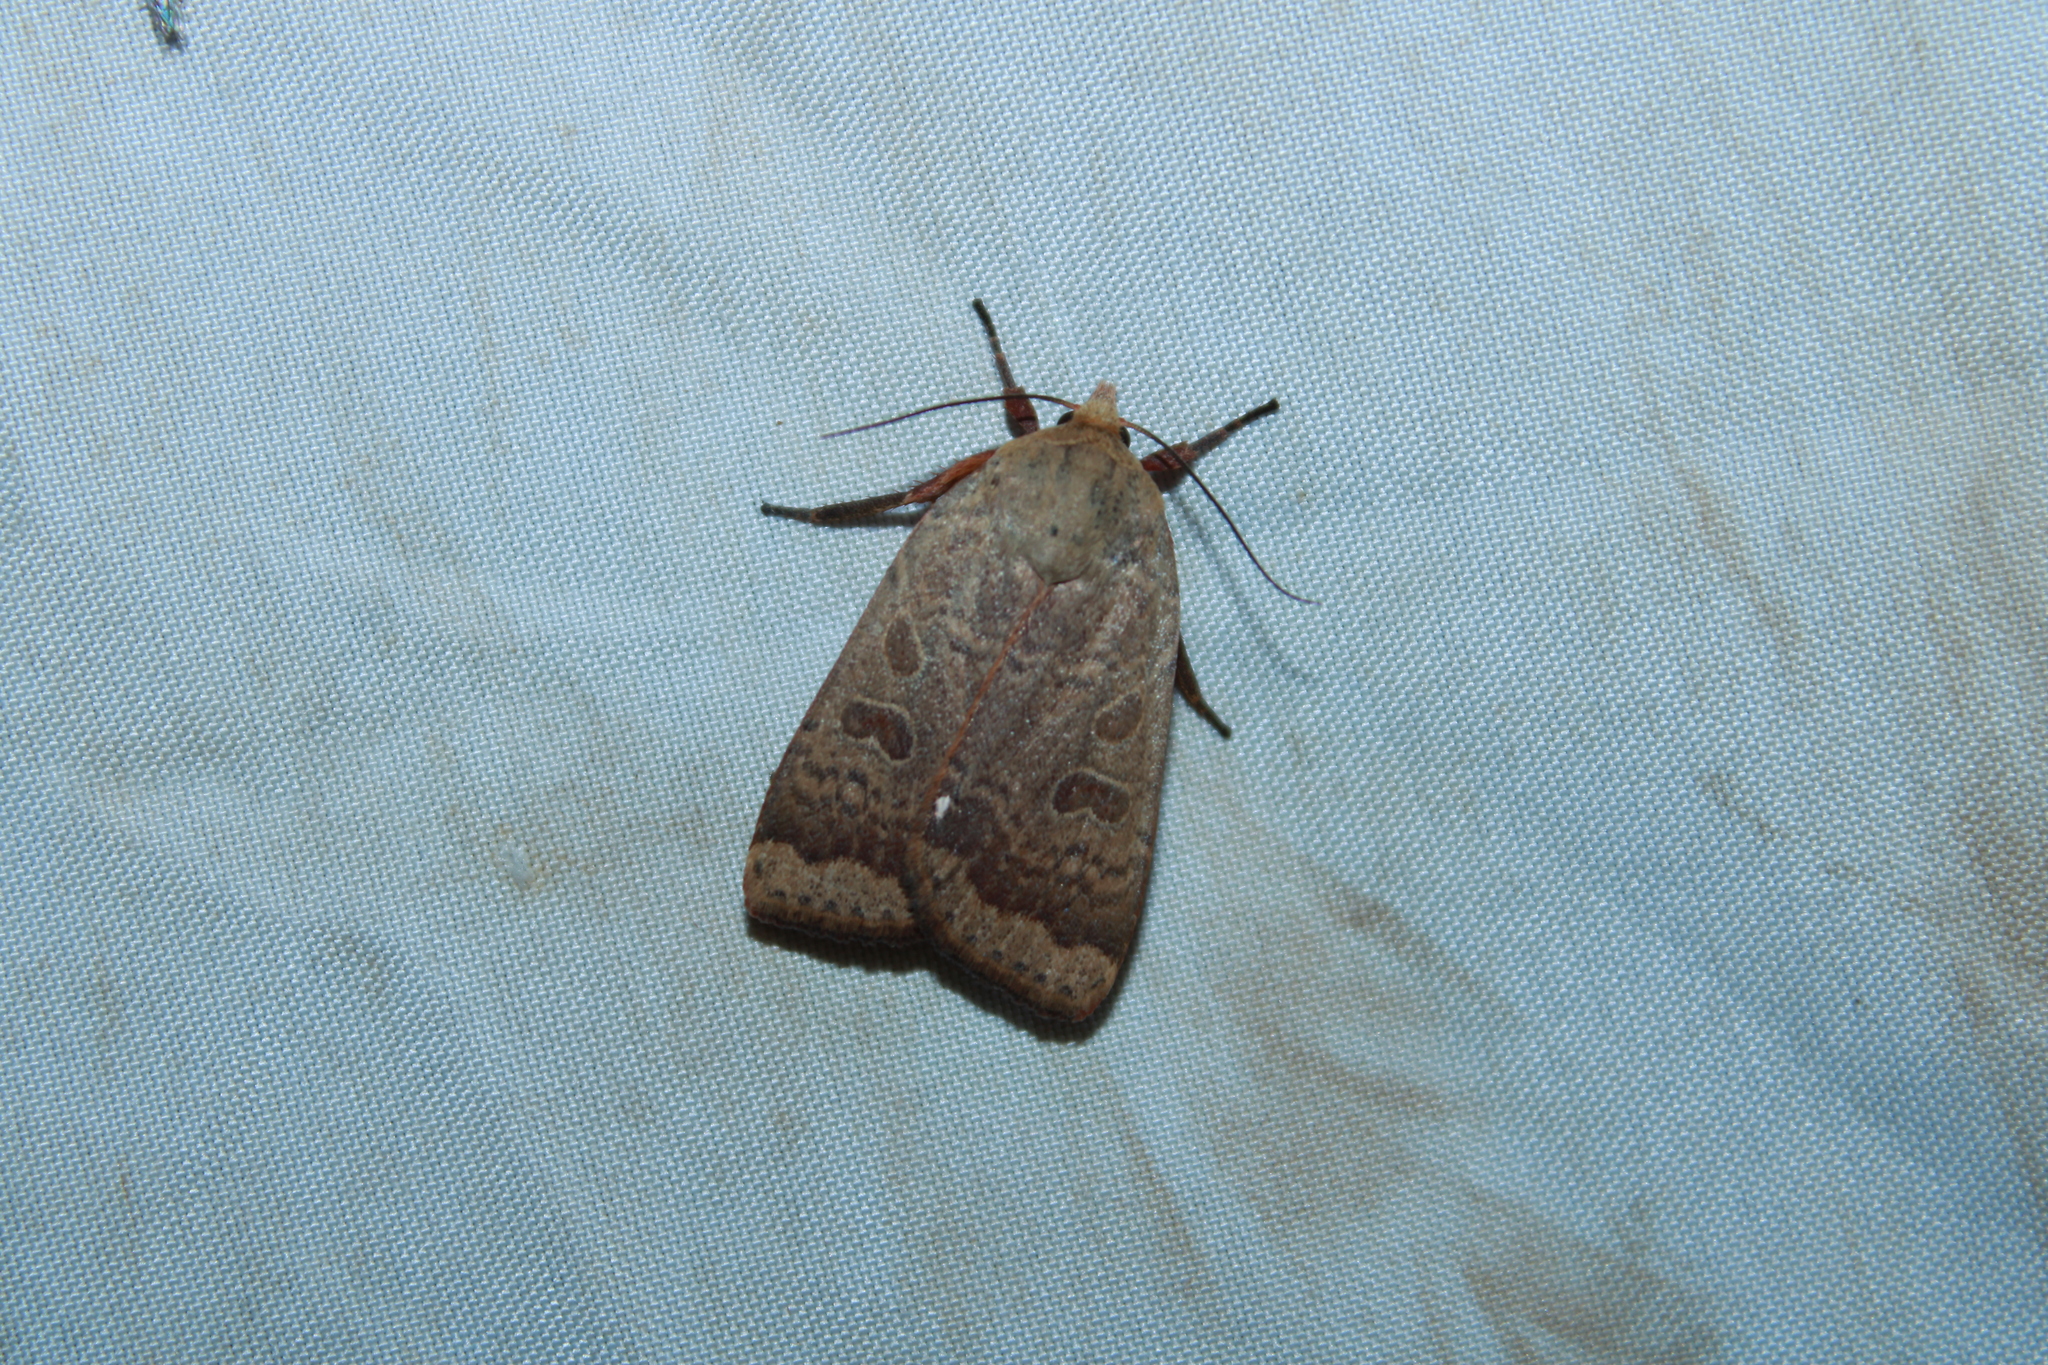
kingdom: Animalia
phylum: Arthropoda
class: Insecta
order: Lepidoptera
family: Noctuidae
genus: Abagrotis
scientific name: Abagrotis alternata
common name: Greater red dart
